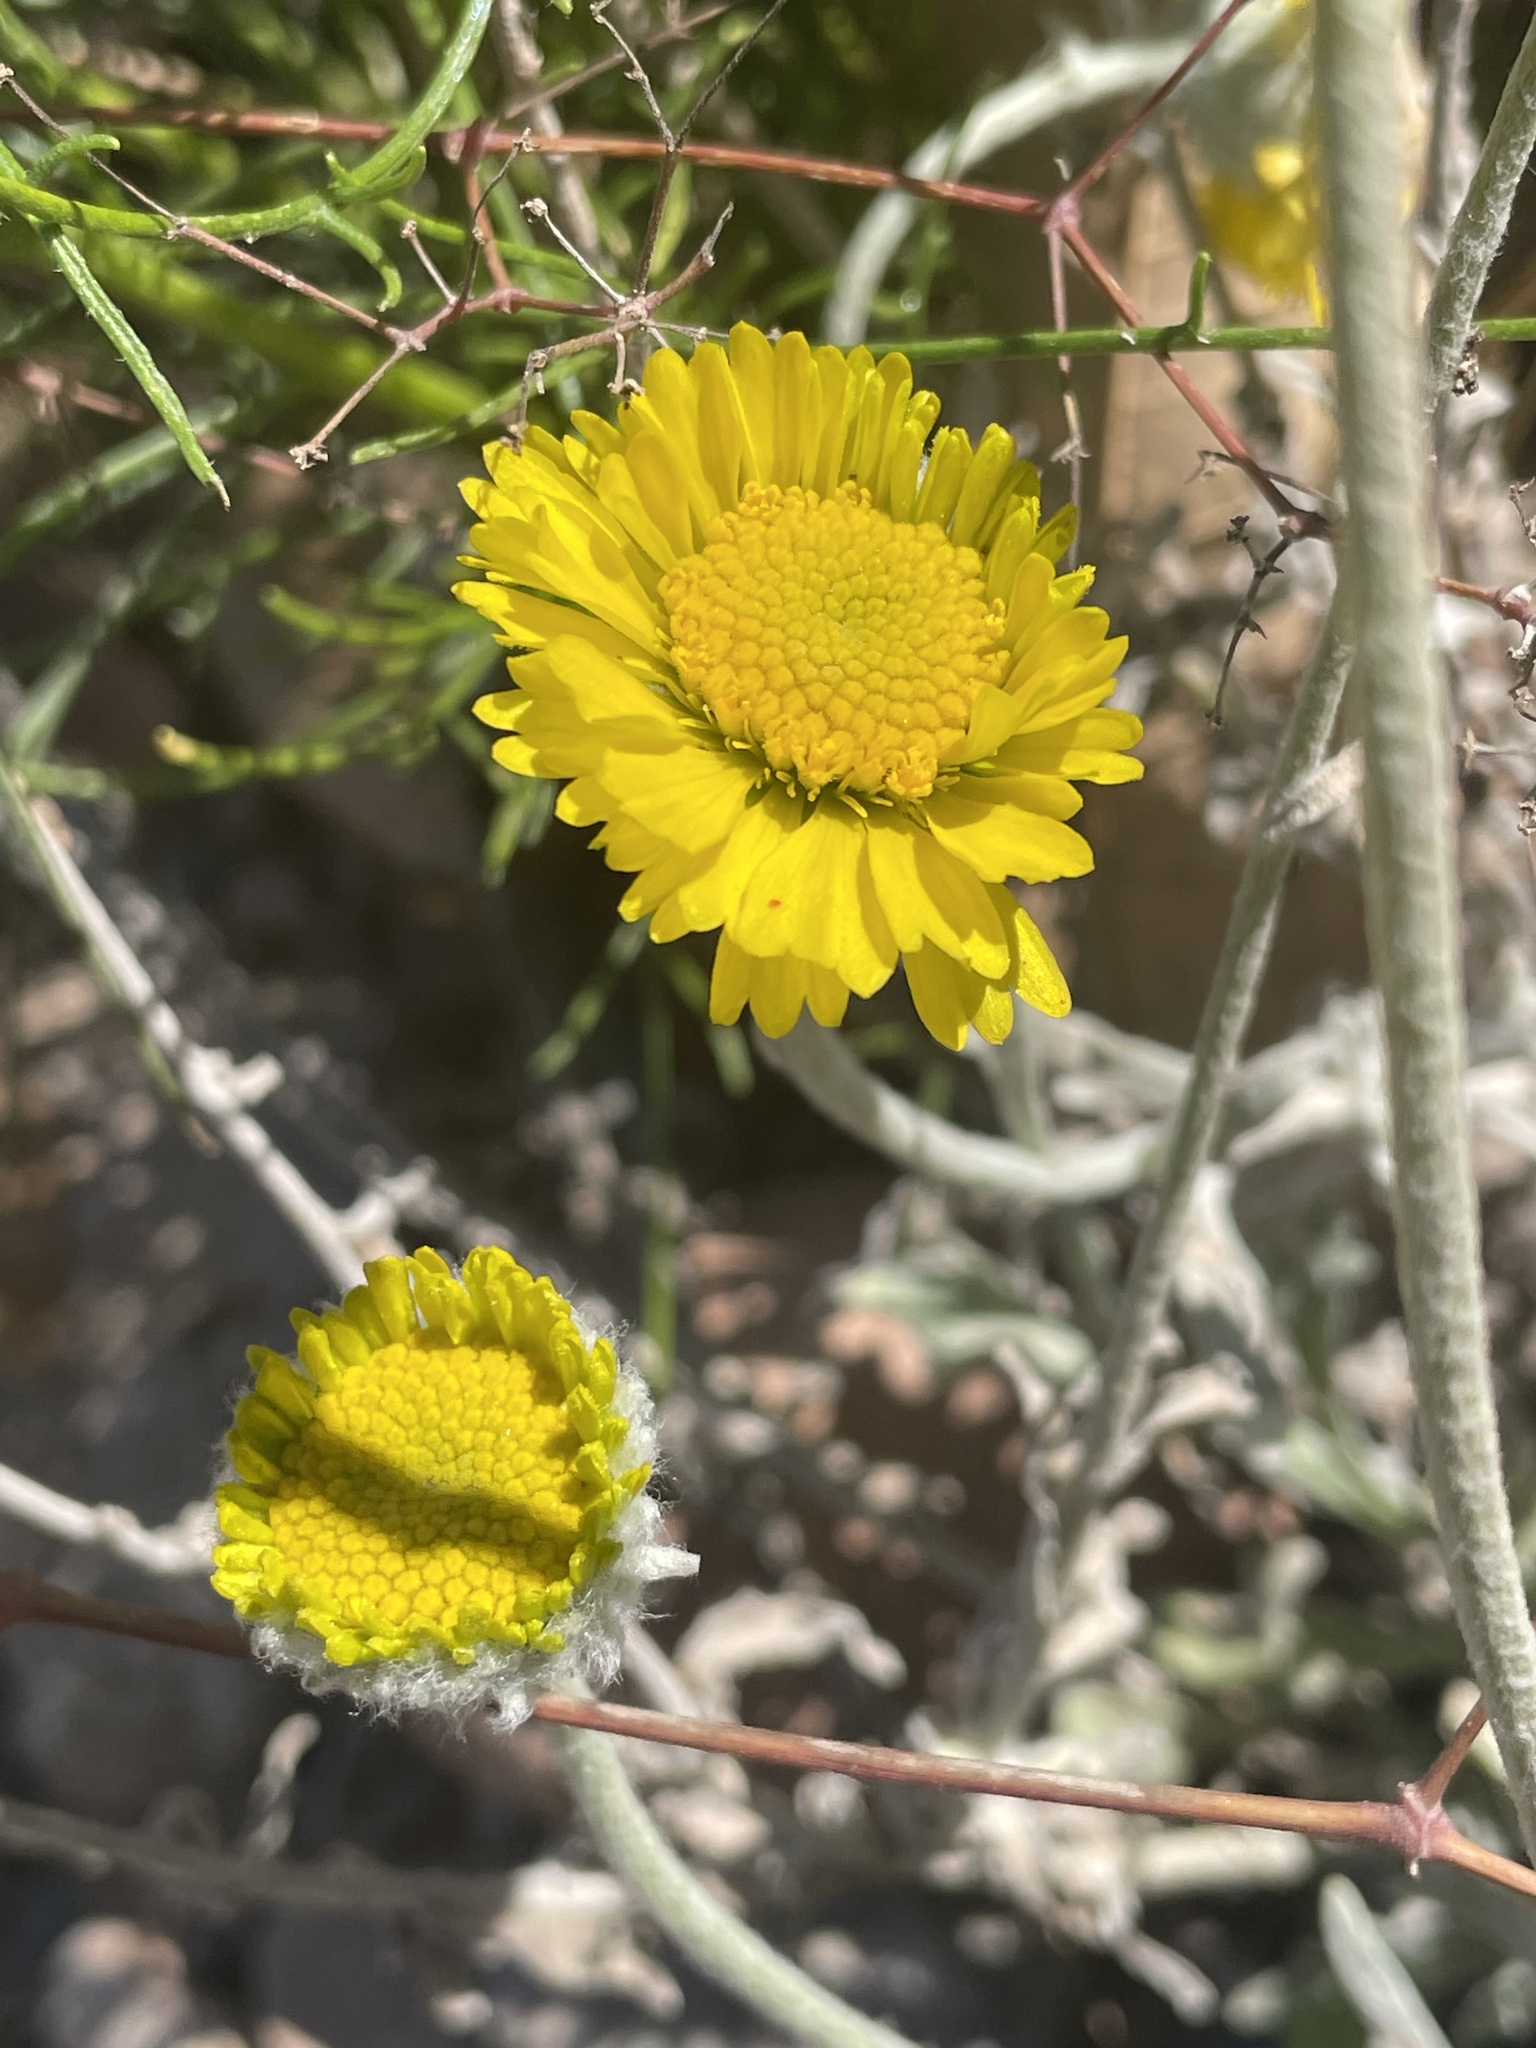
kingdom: Plantae
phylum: Tracheophyta
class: Magnoliopsida
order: Asterales
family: Asteraceae
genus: Baileya
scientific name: Baileya multiradiata
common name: Desert-marigold
